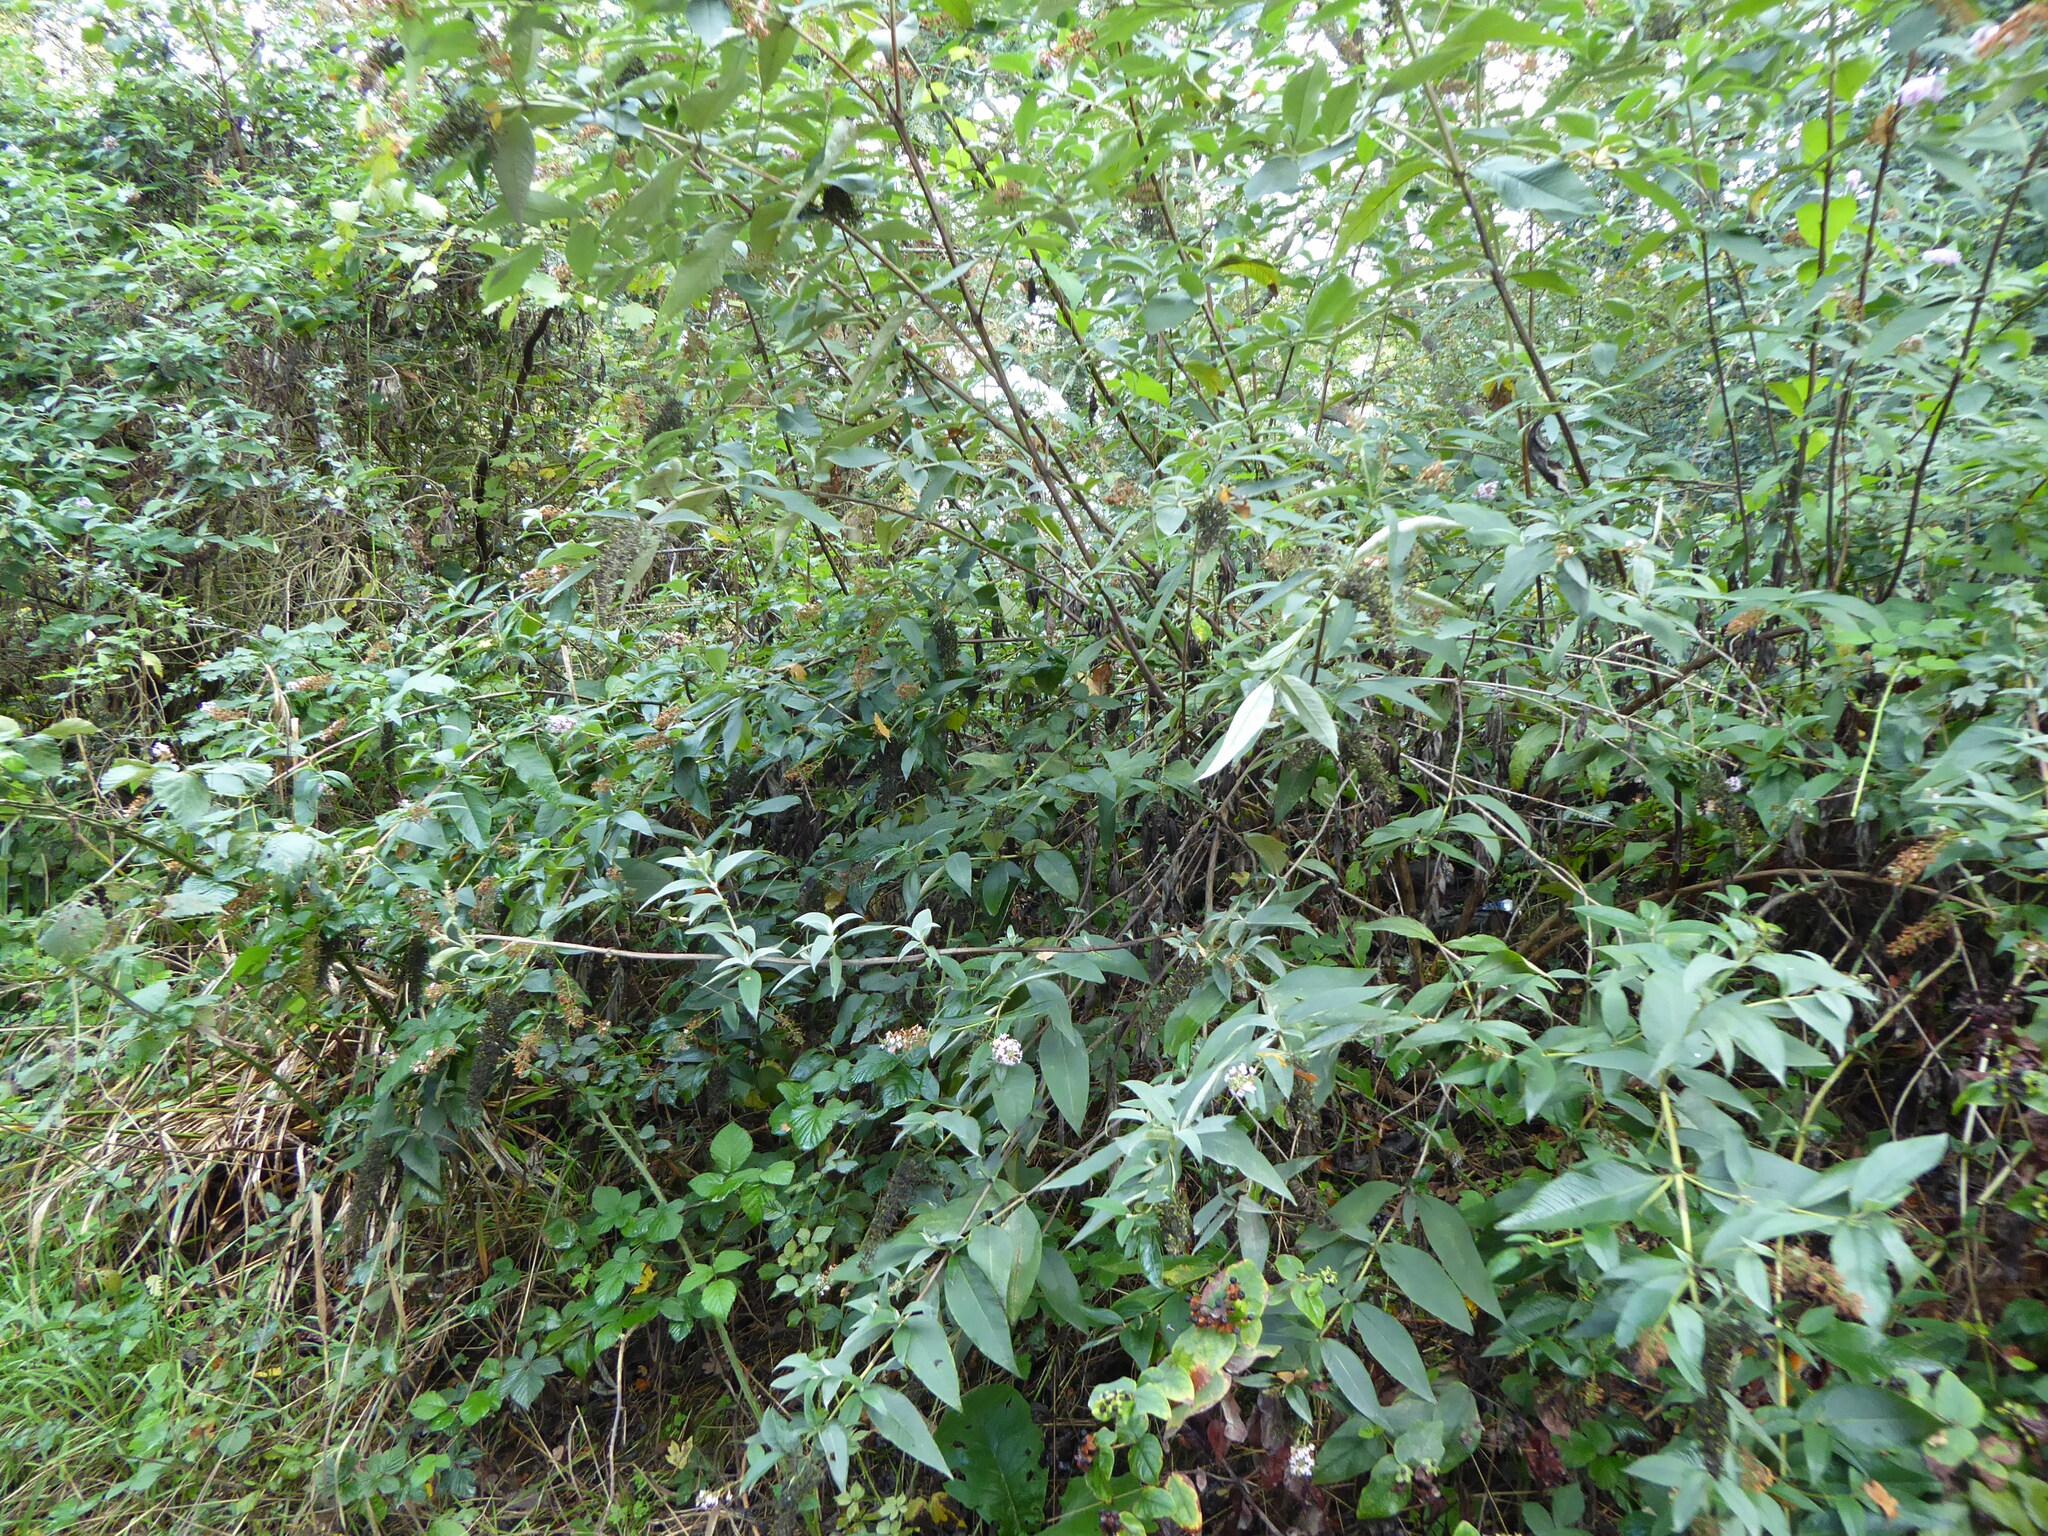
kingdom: Plantae
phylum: Tracheophyta
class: Magnoliopsida
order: Lamiales
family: Scrophulariaceae
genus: Buddleja
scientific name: Buddleja davidii
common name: Butterfly-bush
